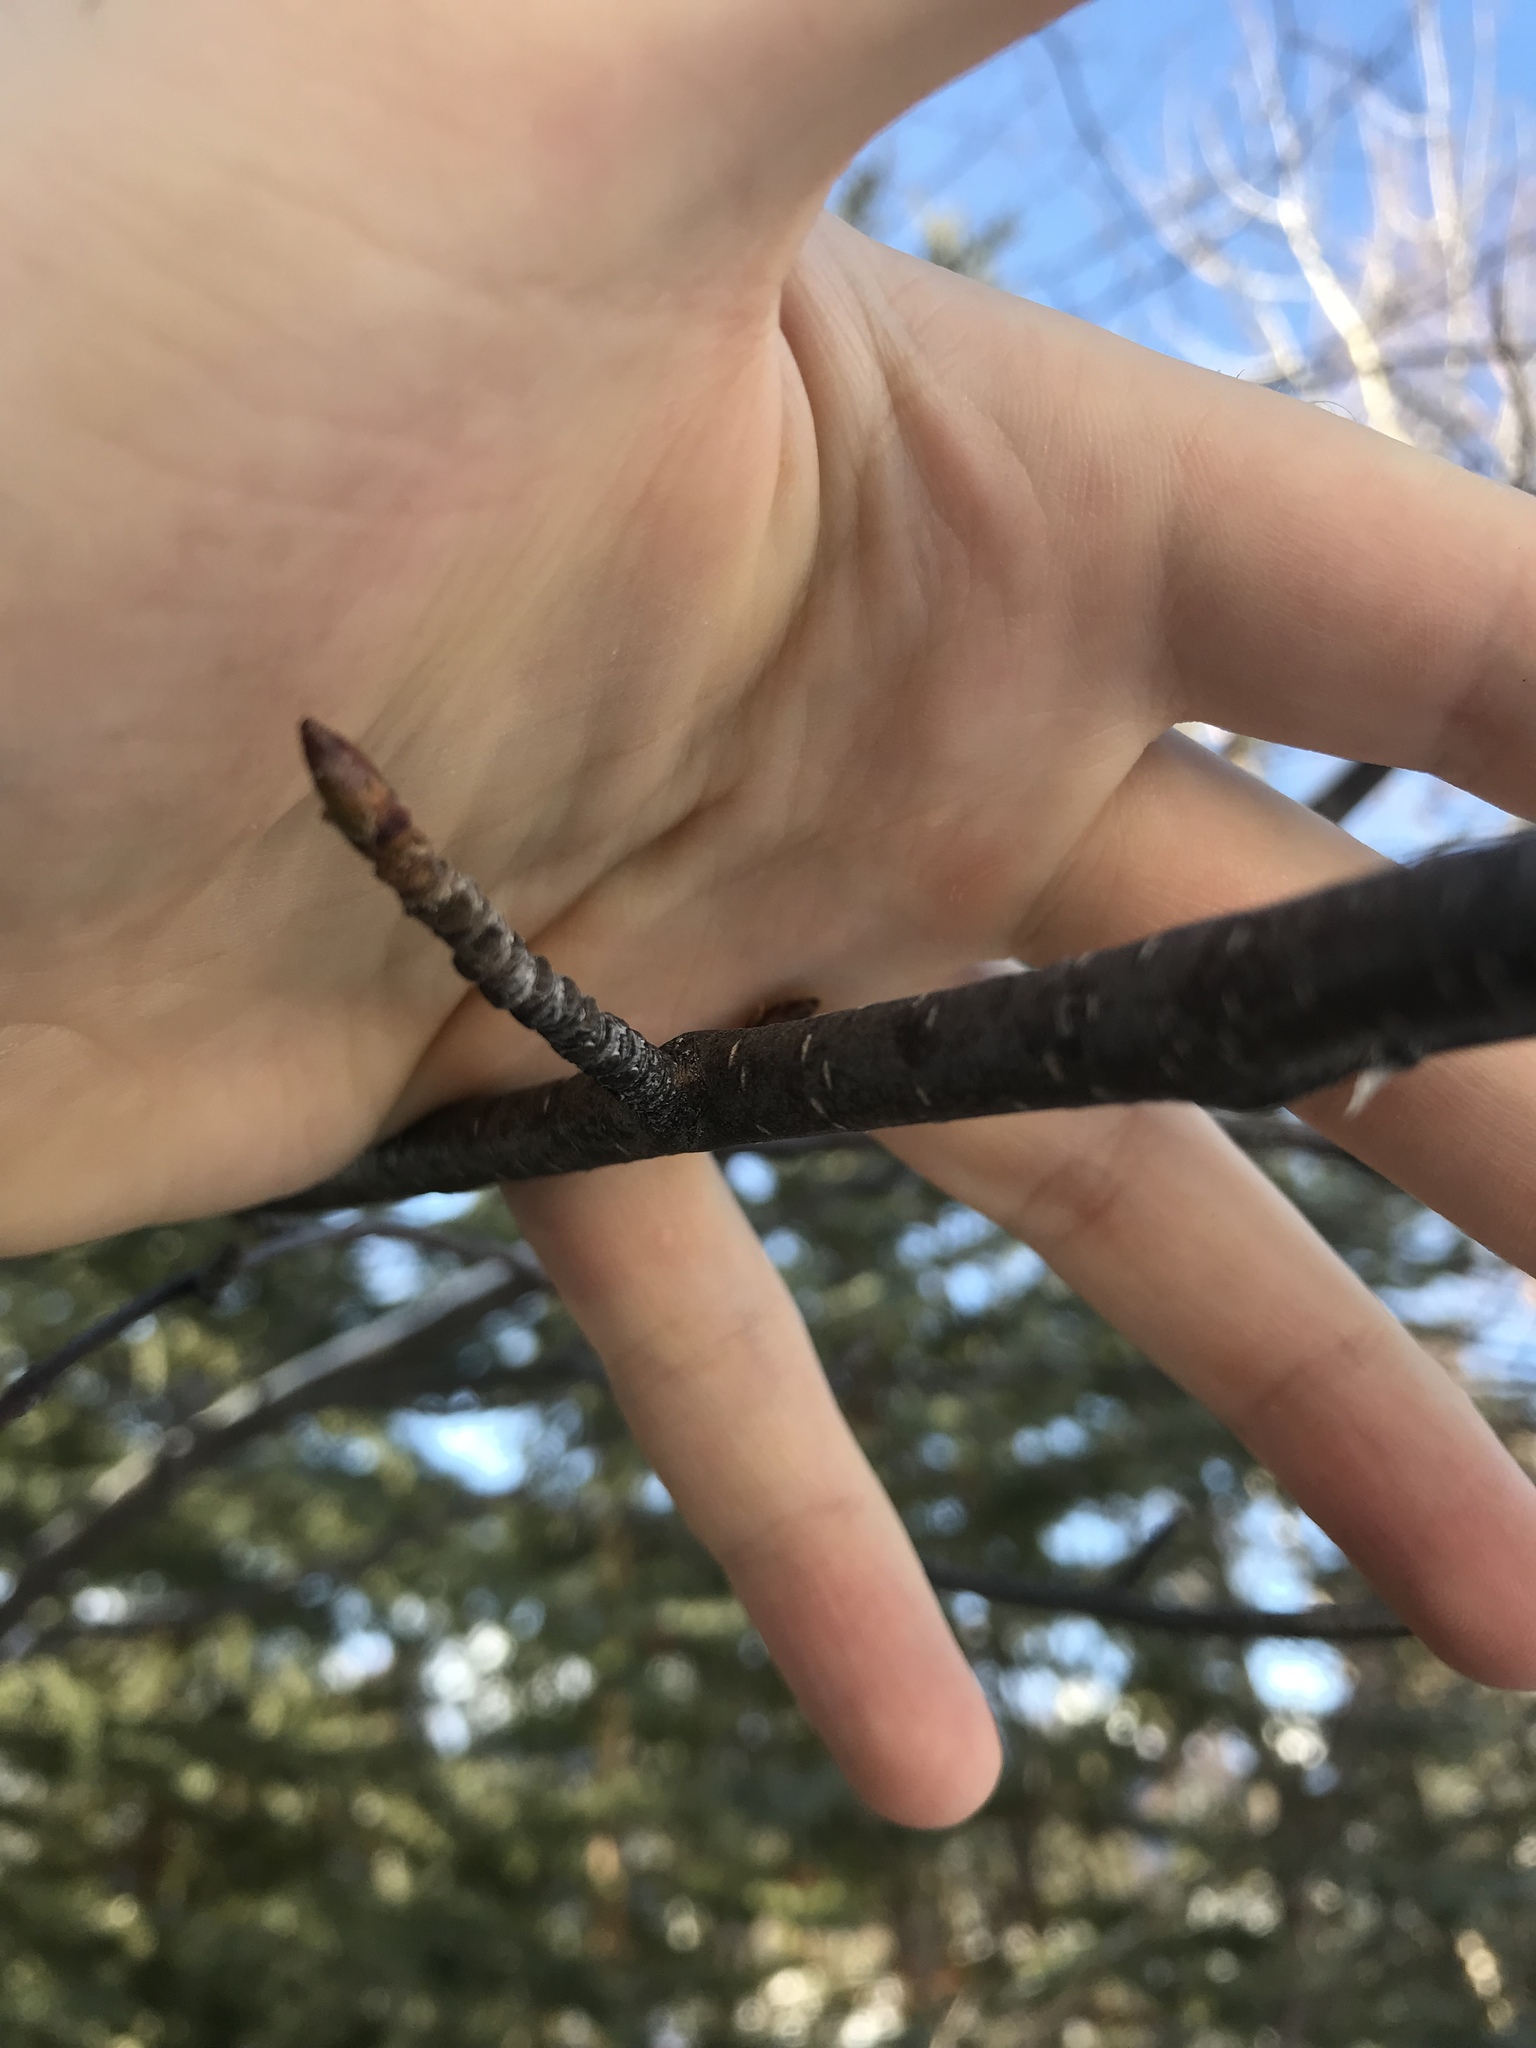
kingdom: Plantae
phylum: Tracheophyta
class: Magnoliopsida
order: Fagales
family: Betulaceae
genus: Betula
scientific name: Betula occidentalis
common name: River birch
